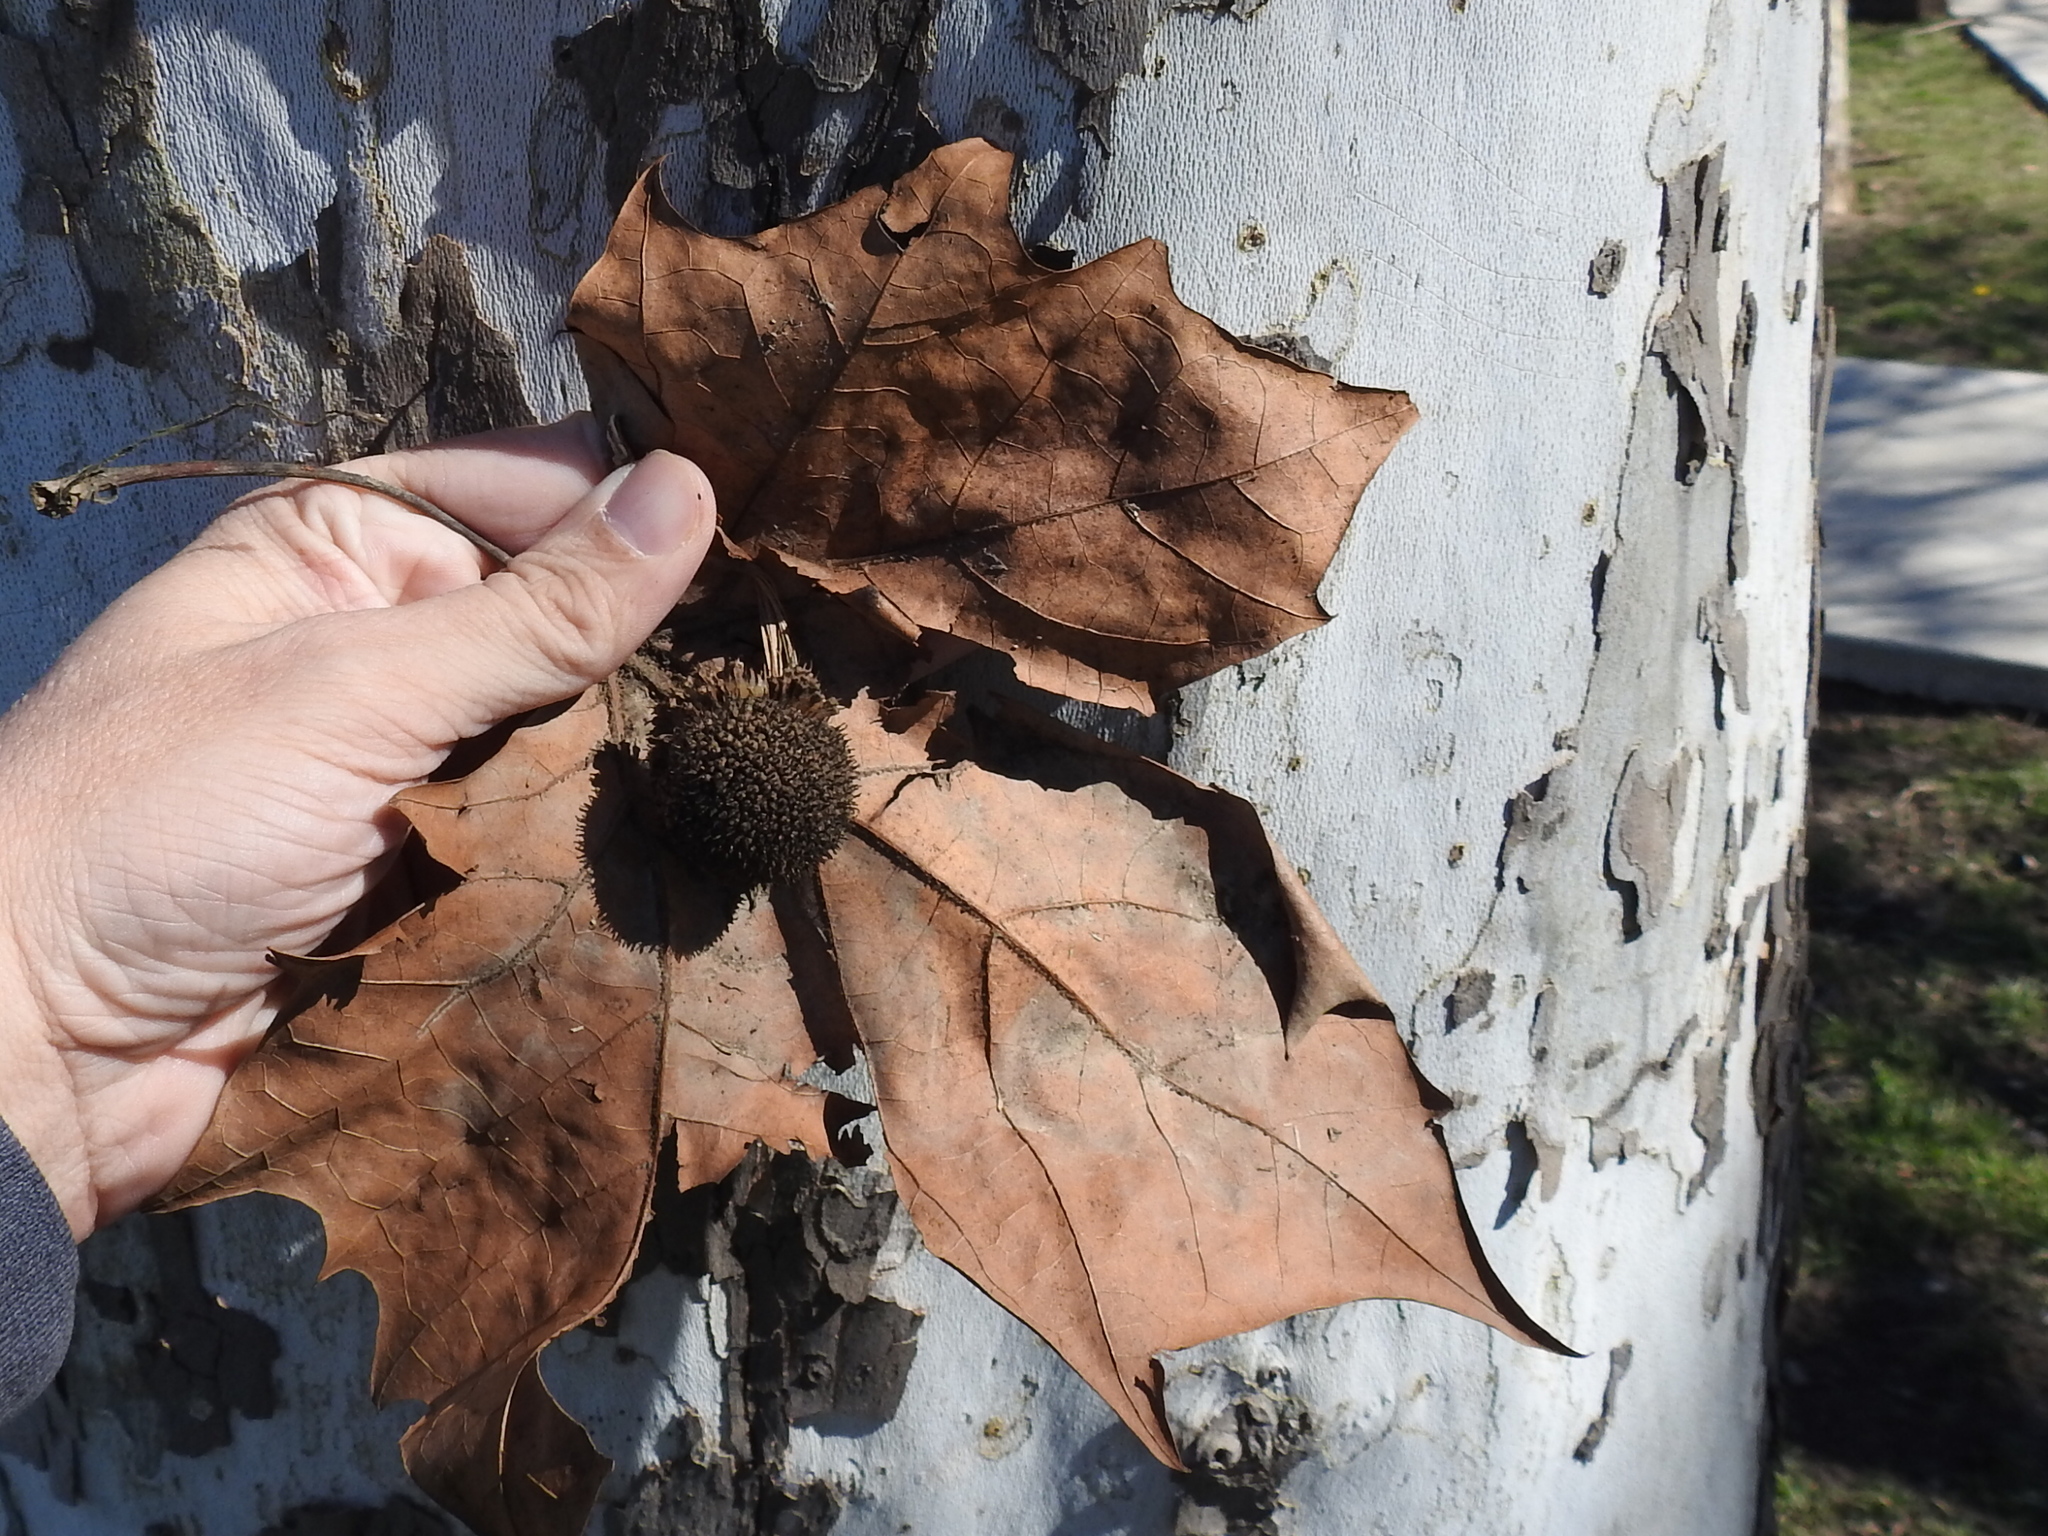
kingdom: Plantae
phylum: Tracheophyta
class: Magnoliopsida
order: Proteales
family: Platanaceae
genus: Platanus
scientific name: Platanus occidentalis
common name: American sycamore
